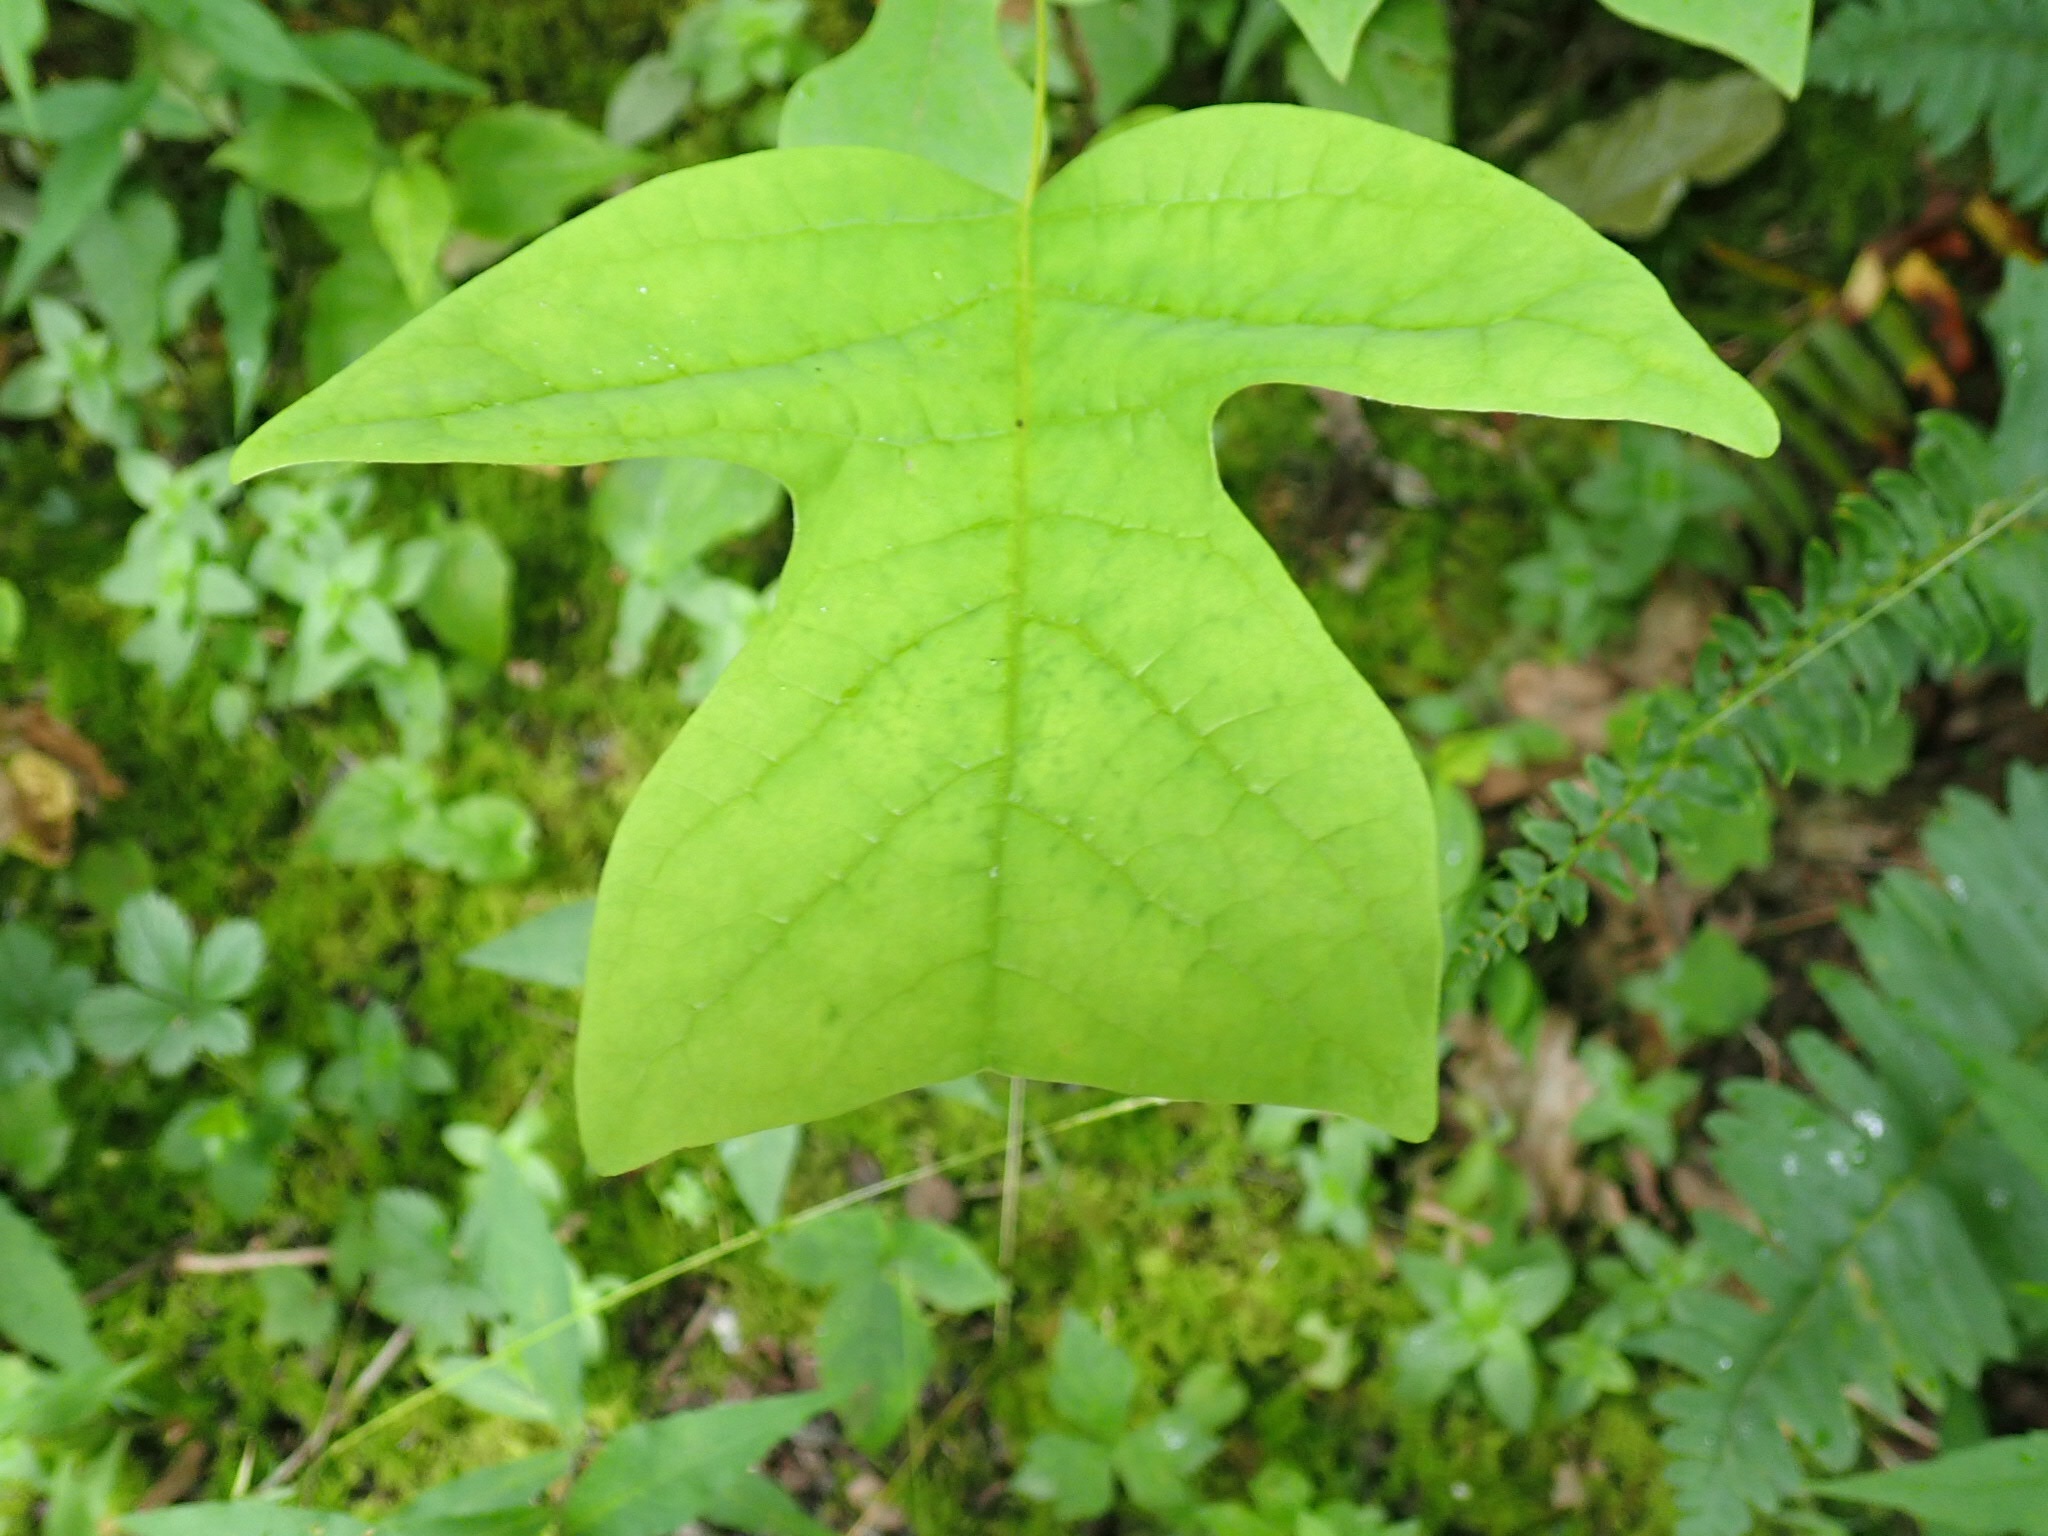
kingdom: Plantae
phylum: Tracheophyta
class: Magnoliopsida
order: Magnoliales
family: Magnoliaceae
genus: Liriodendron
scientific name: Liriodendron tulipifera
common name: Tulip tree
